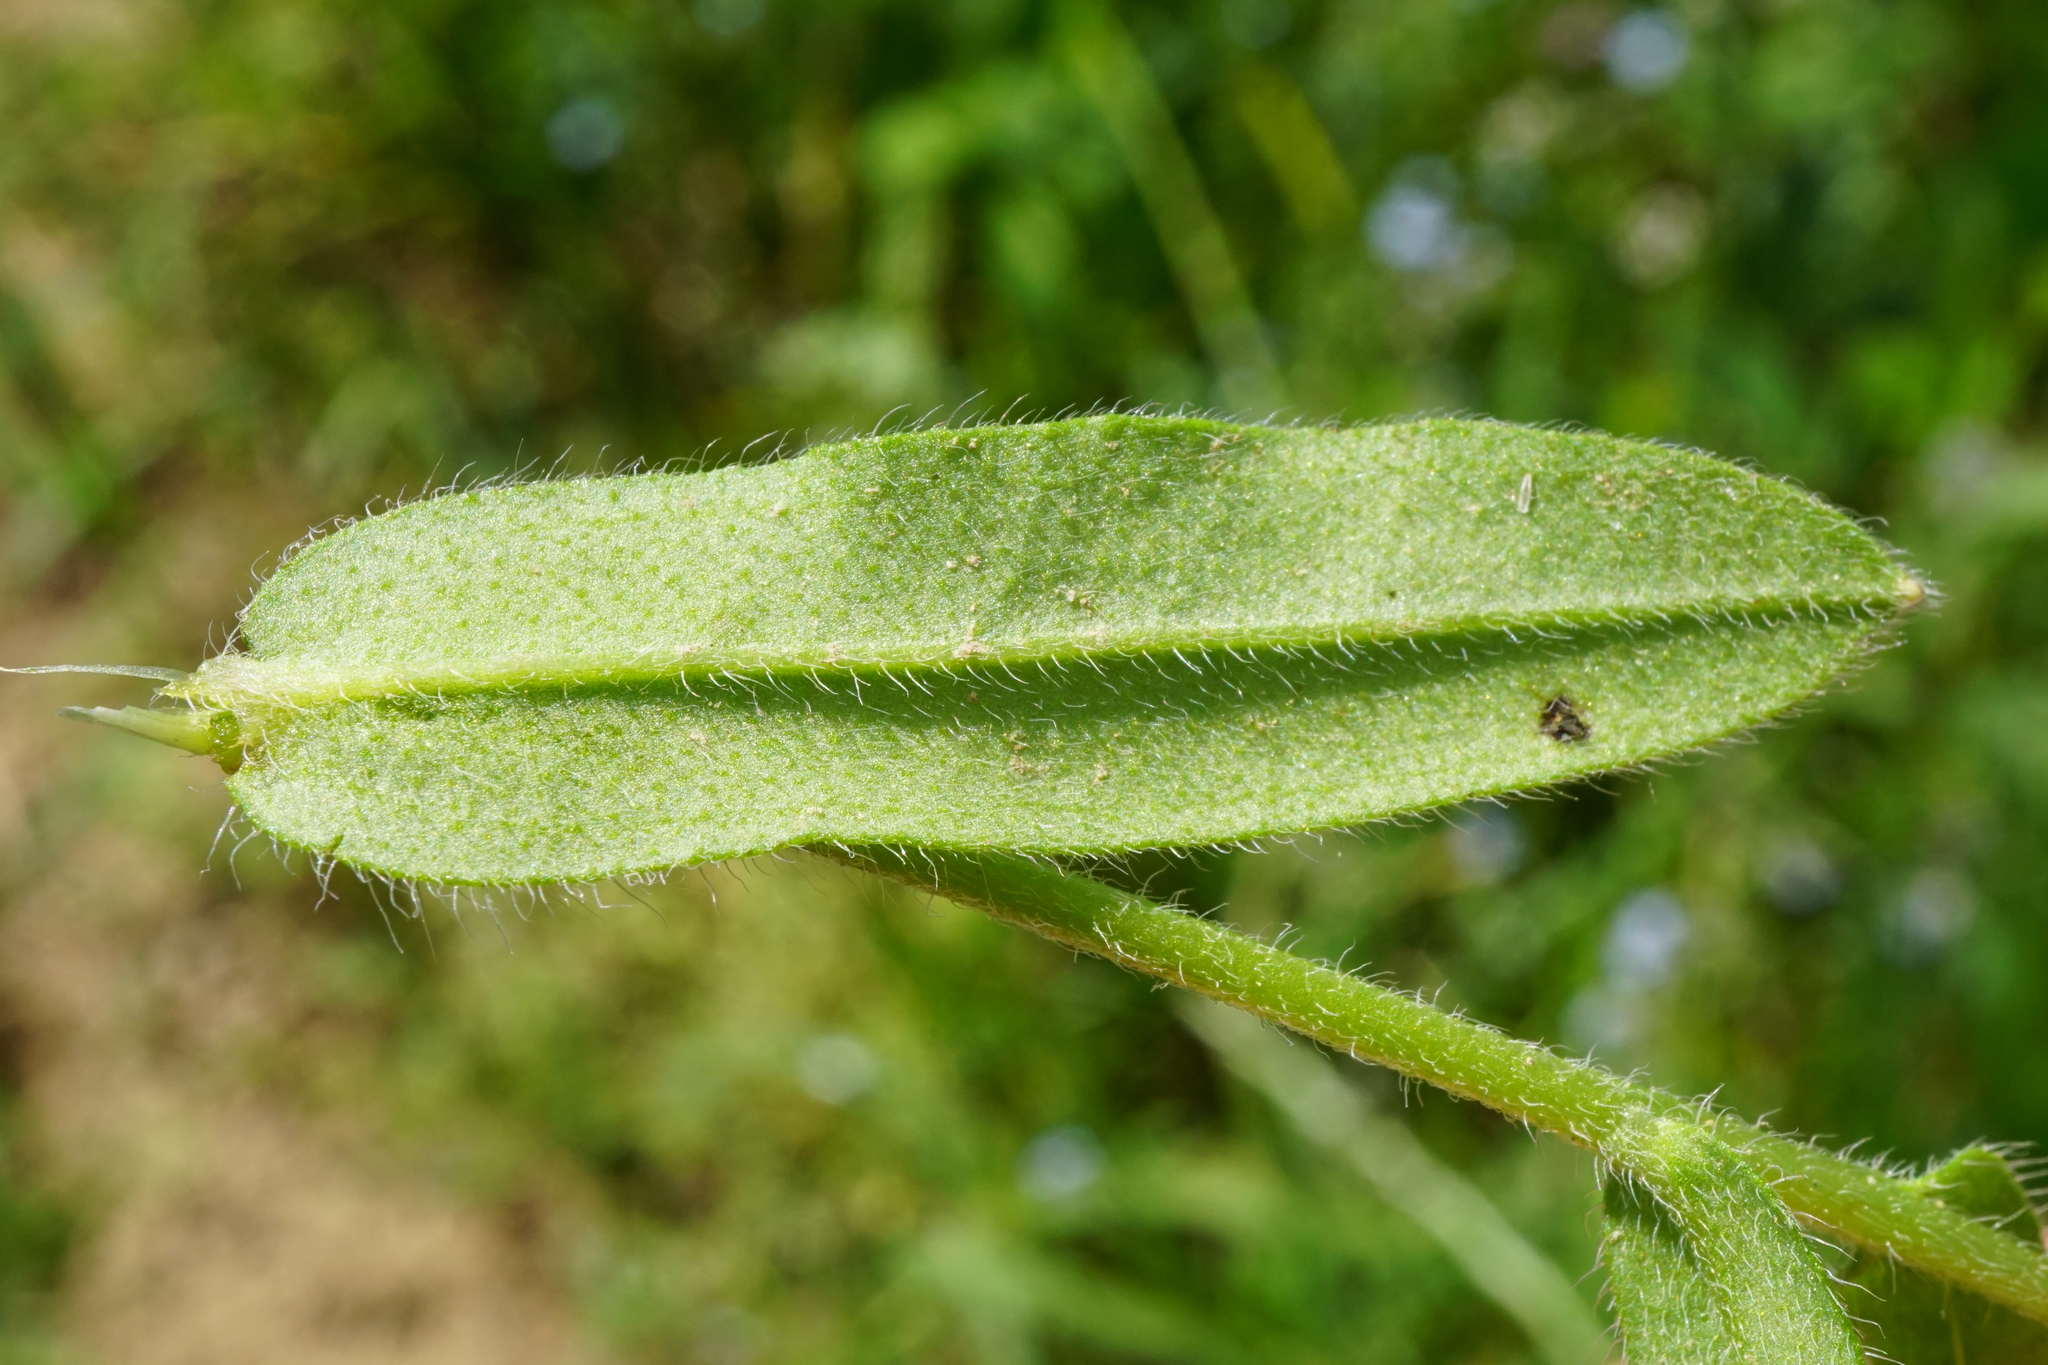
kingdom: Plantae
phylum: Tracheophyta
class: Magnoliopsida
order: Boraginales
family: Boraginaceae
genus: Myosotis
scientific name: Myosotis arvensis
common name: Field forget-me-not
